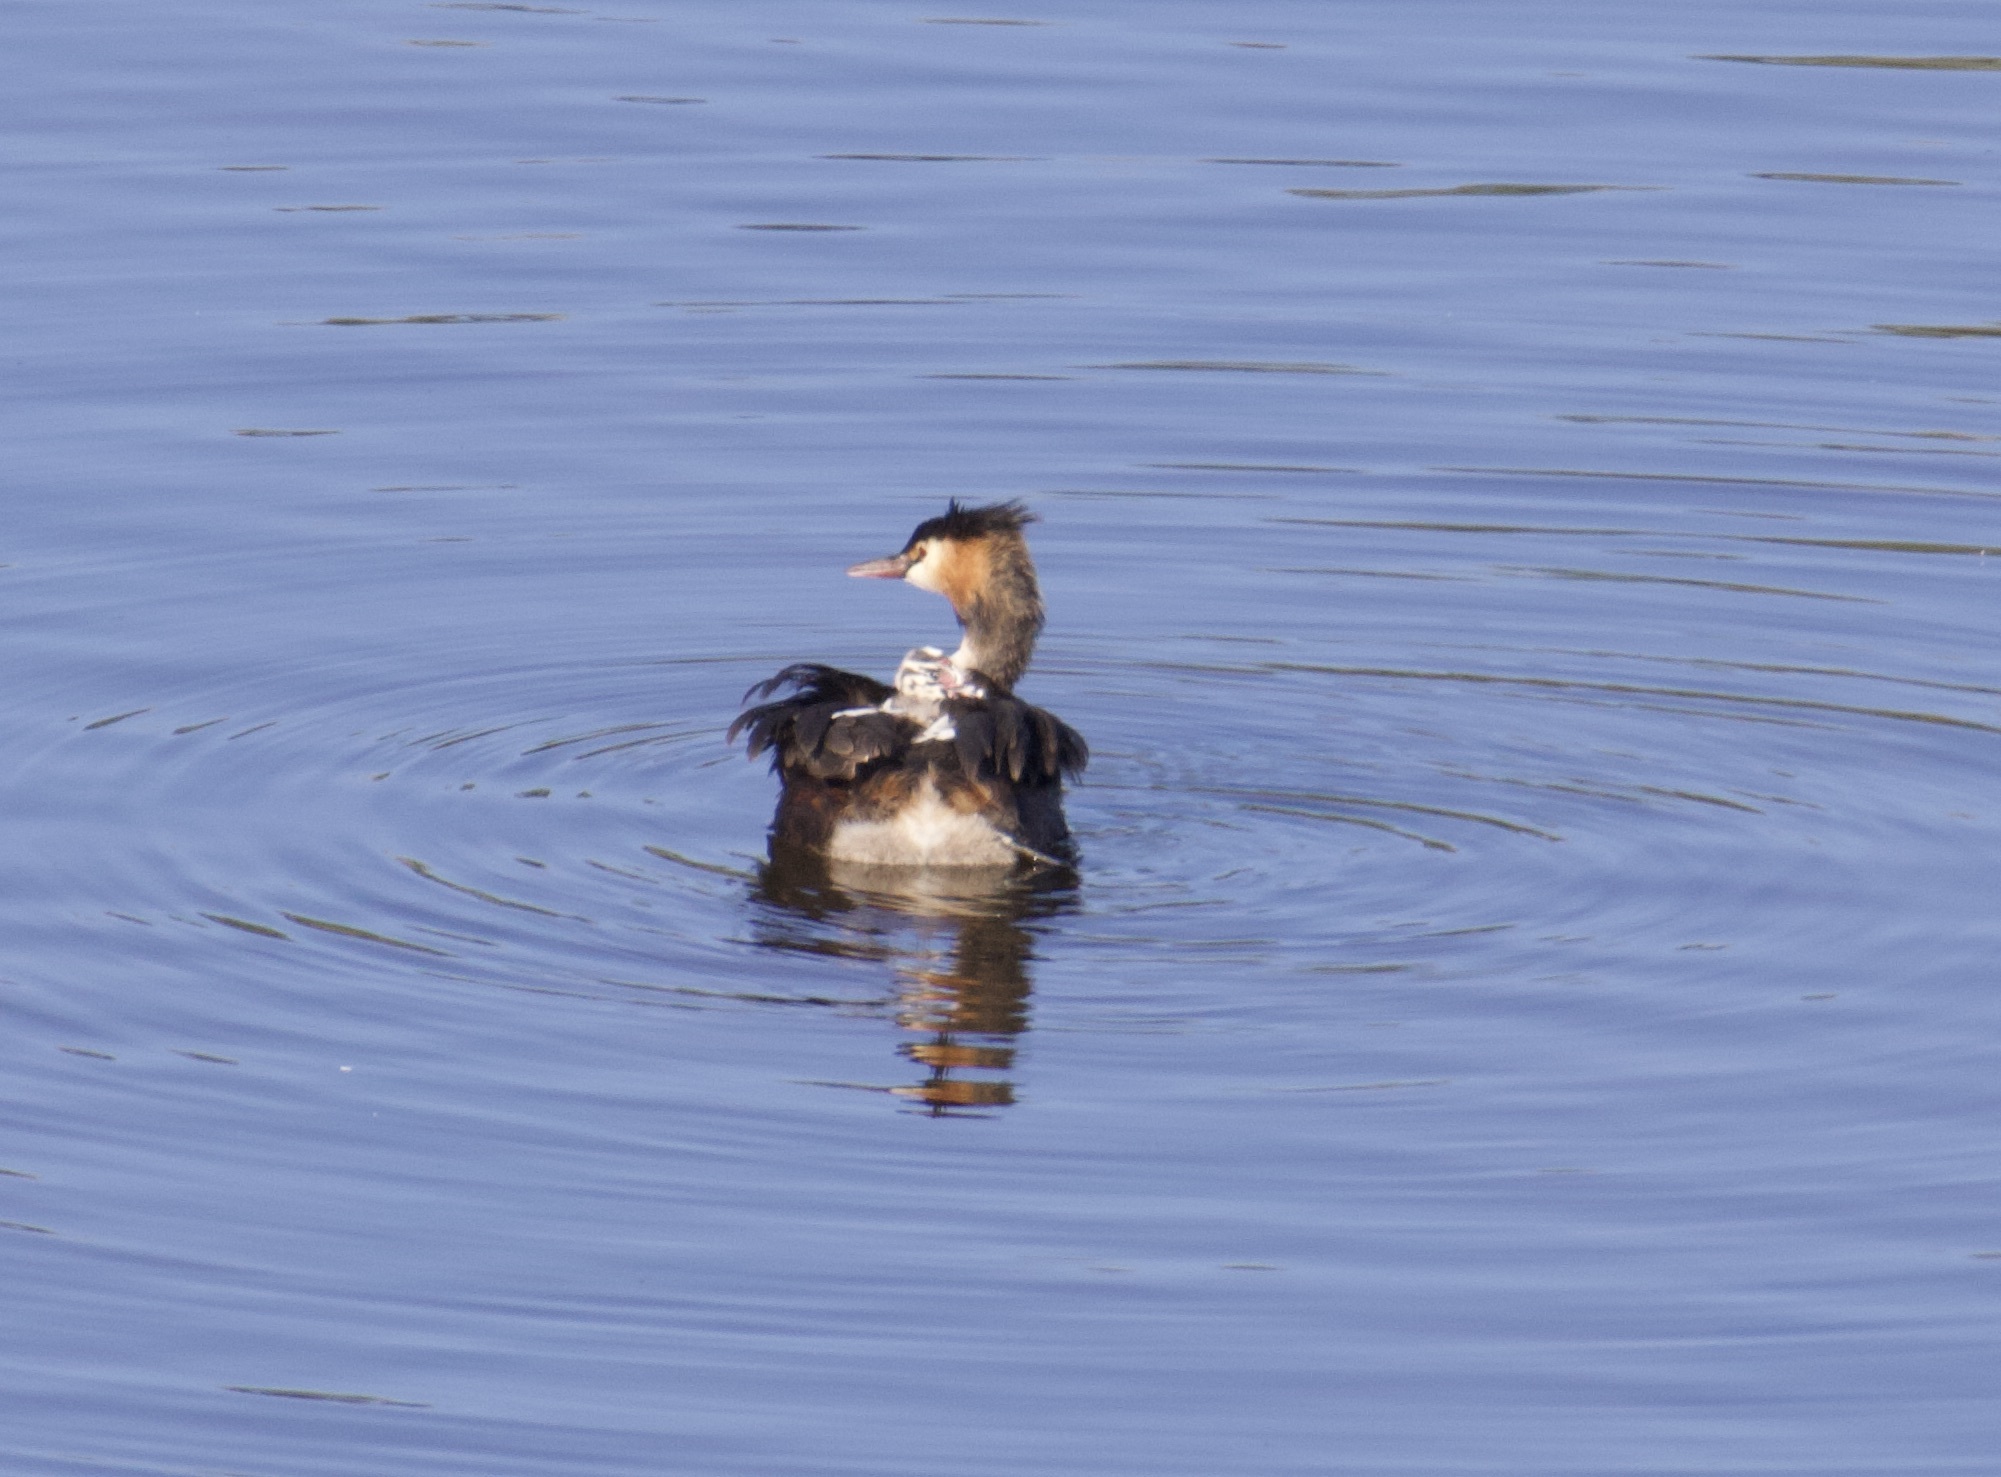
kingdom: Animalia
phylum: Chordata
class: Aves
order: Podicipediformes
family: Podicipedidae
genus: Podiceps
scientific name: Podiceps cristatus
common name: Great crested grebe
